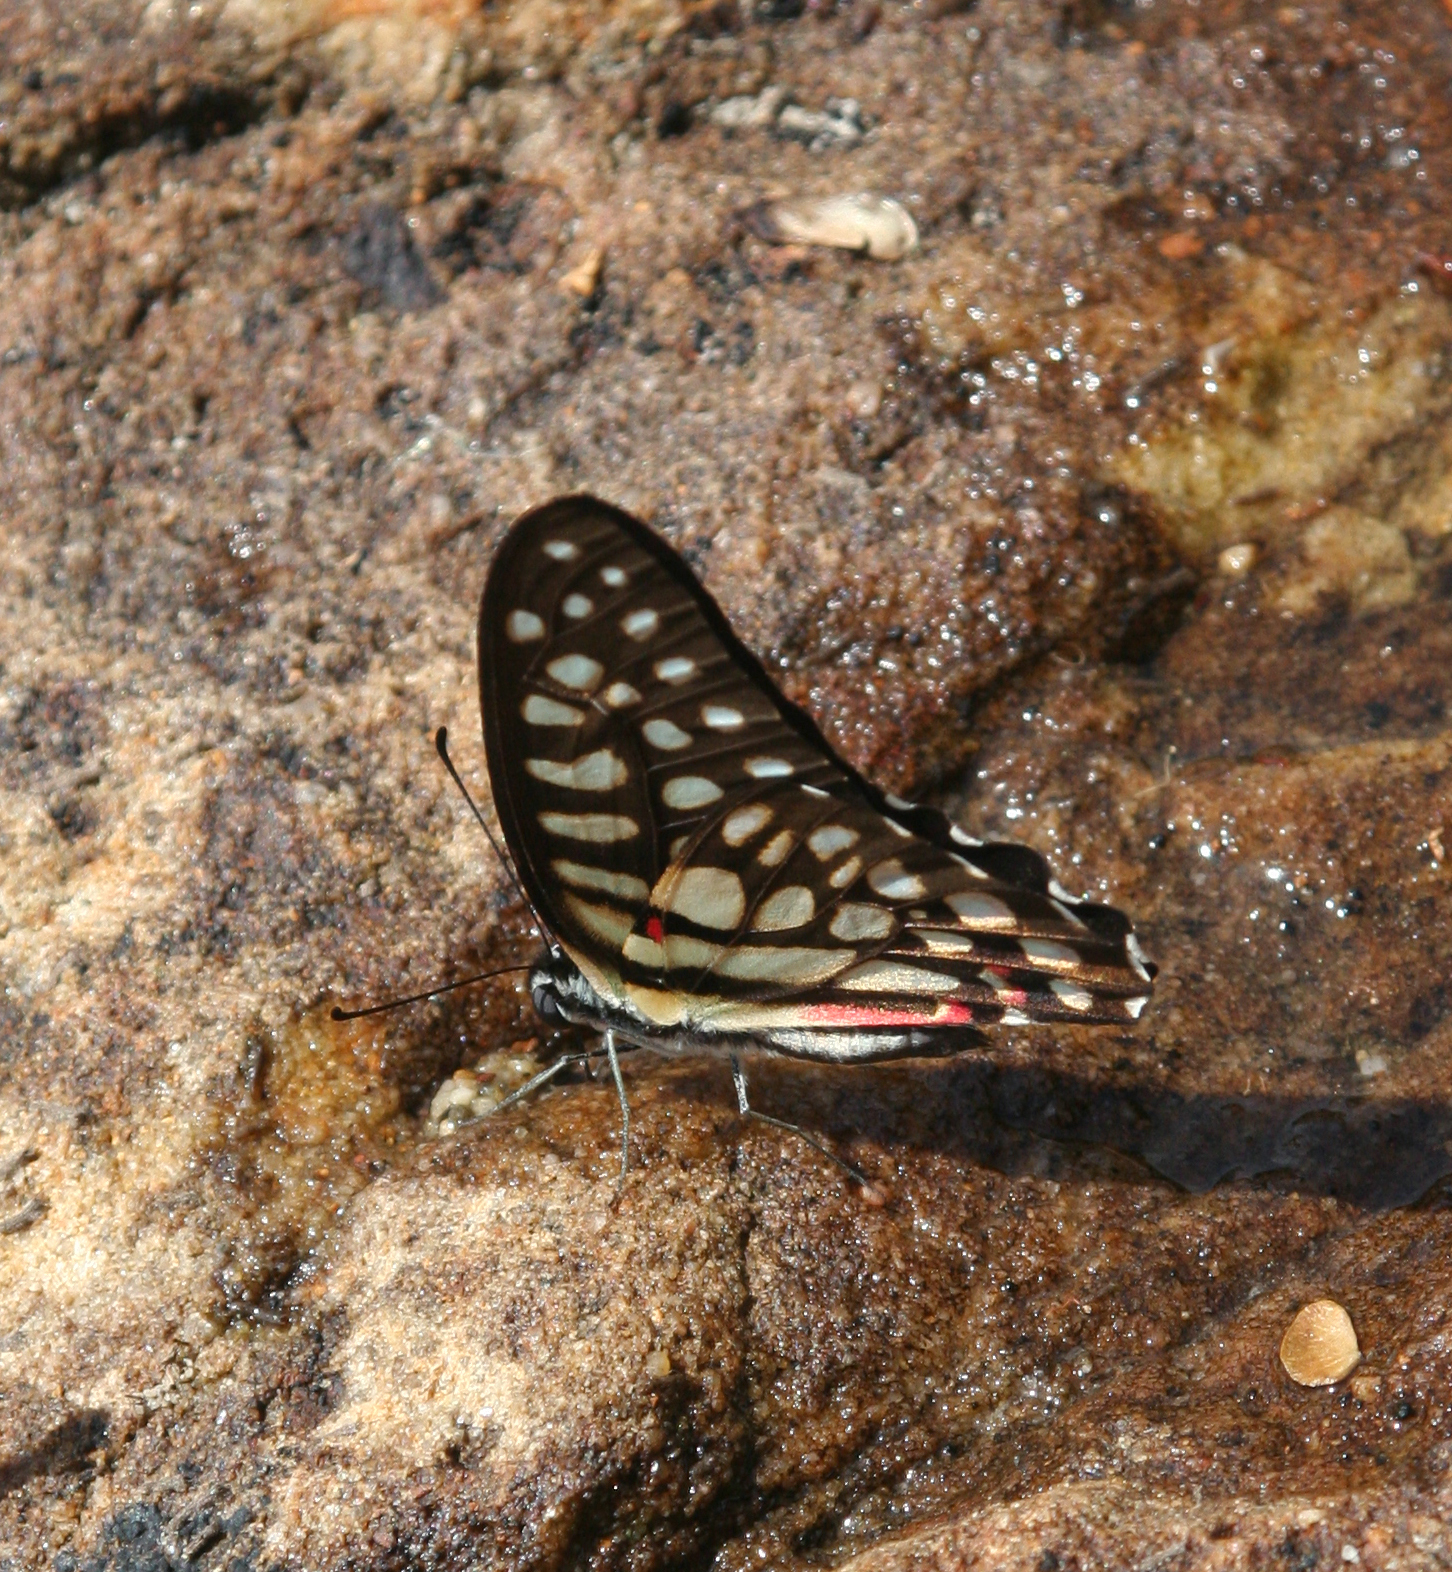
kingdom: Animalia
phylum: Arthropoda
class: Insecta
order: Lepidoptera
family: Papilionidae
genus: Graphium
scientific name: Graphium arycles
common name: Spotted jay
